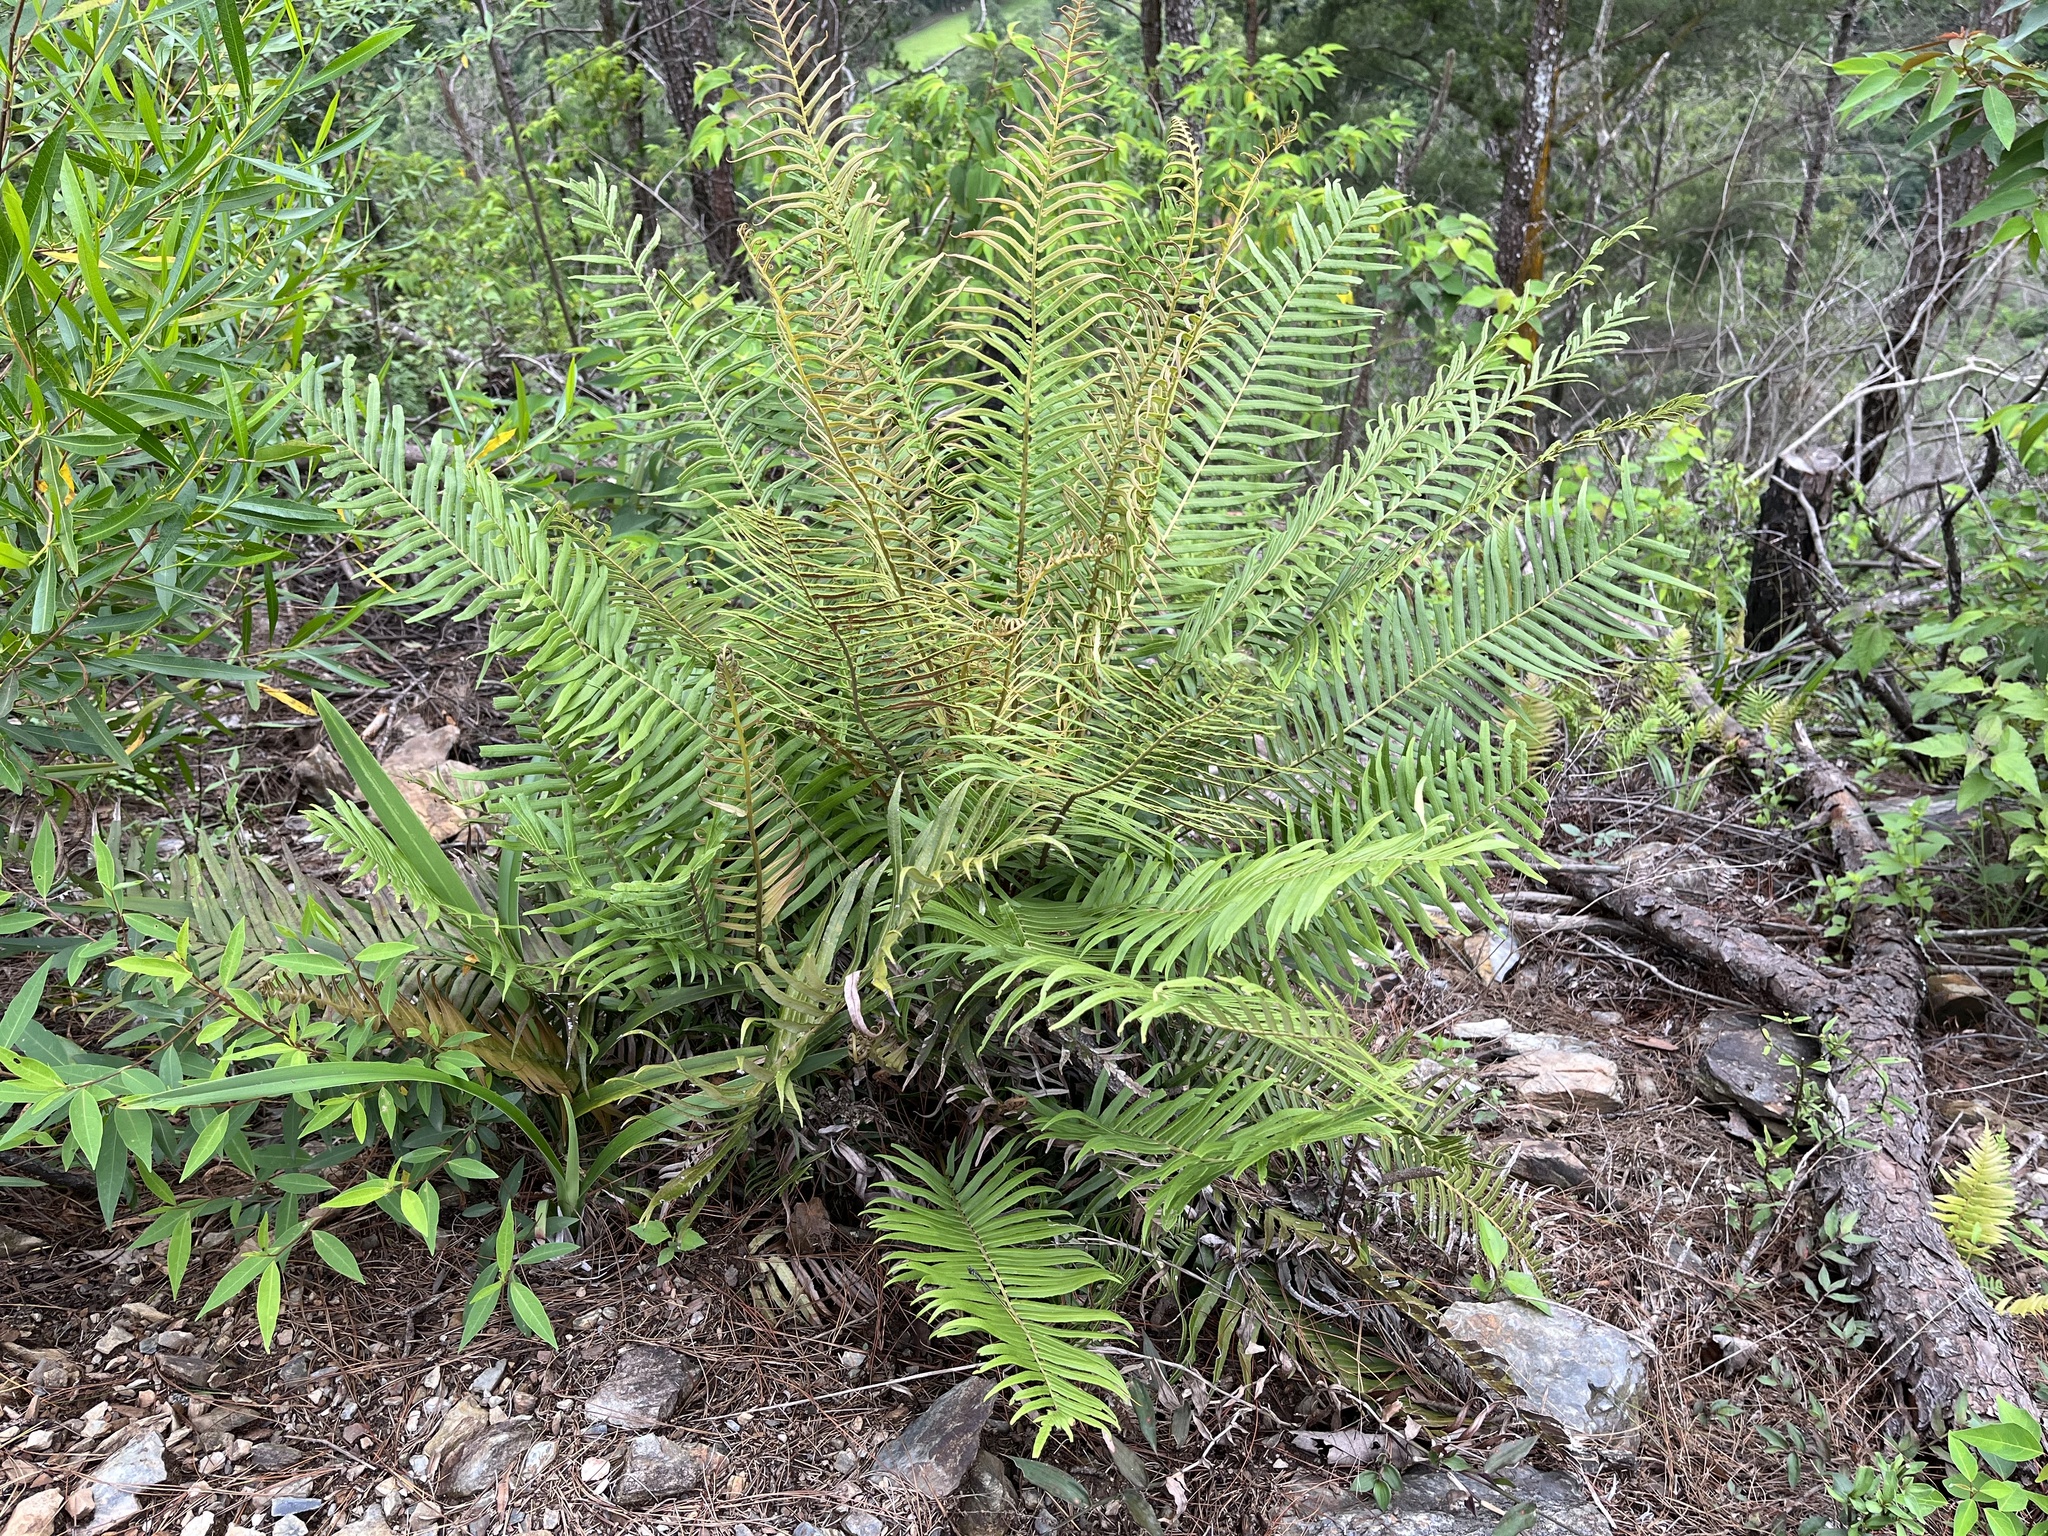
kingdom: Plantae
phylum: Tracheophyta
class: Polypodiopsida
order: Polypodiales
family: Blechnaceae
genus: Brainea
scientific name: Brainea insignis
